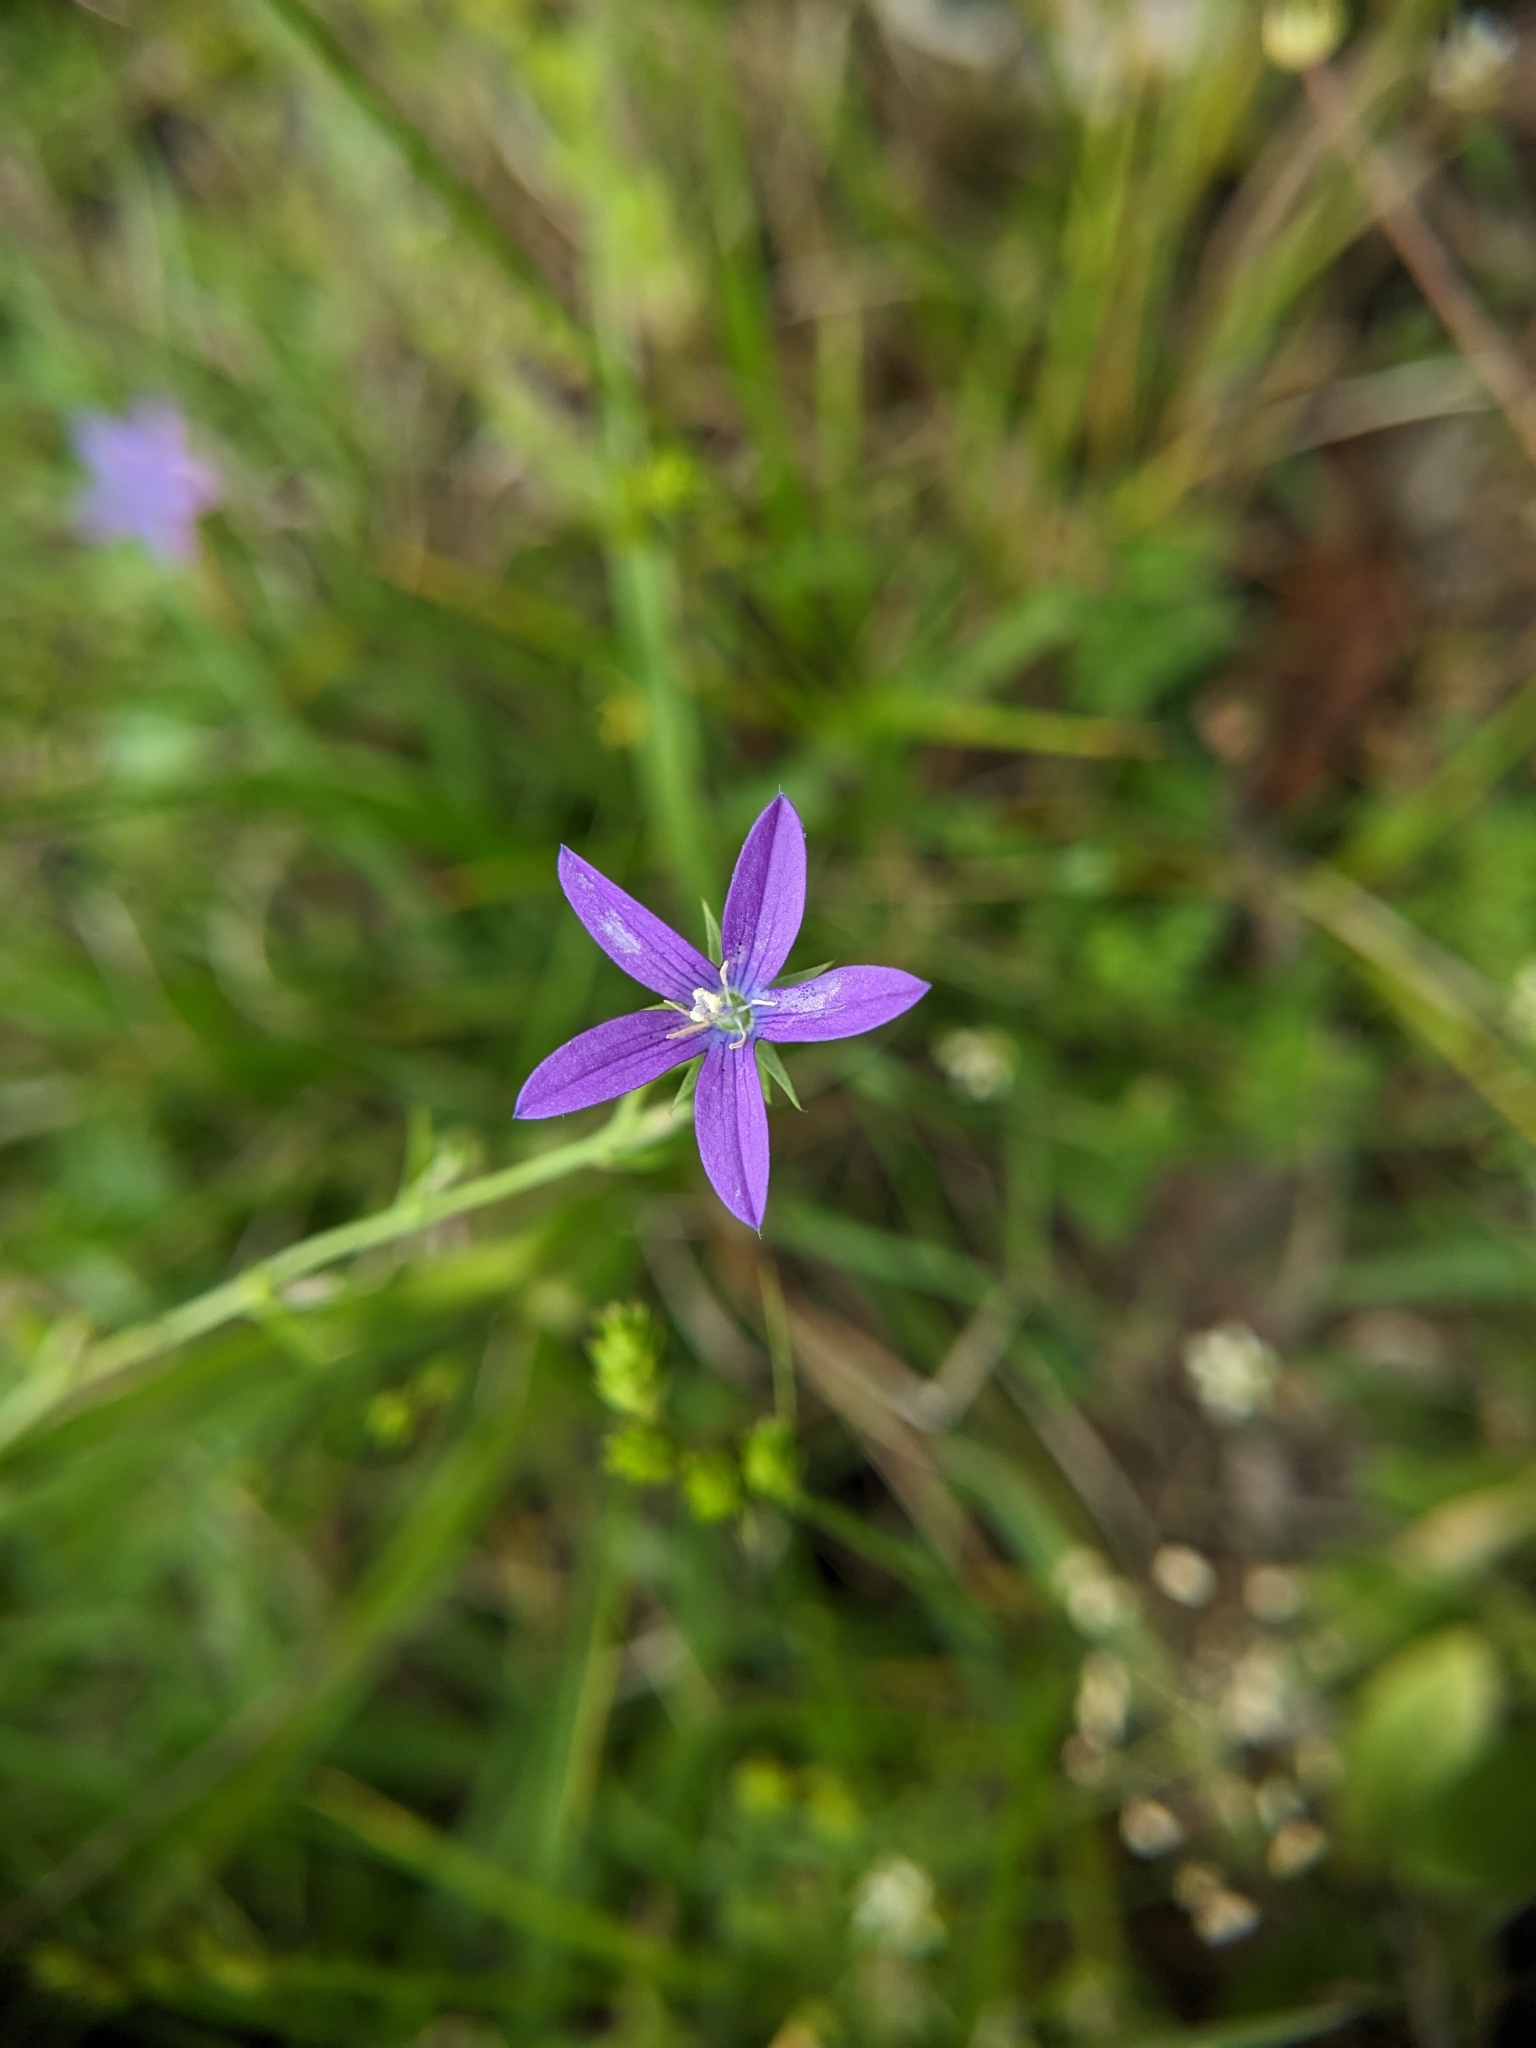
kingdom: Plantae
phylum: Tracheophyta
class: Magnoliopsida
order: Asterales
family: Campanulaceae
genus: Triodanis
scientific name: Triodanis perfoliata
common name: Clasping venus' looking-glass
